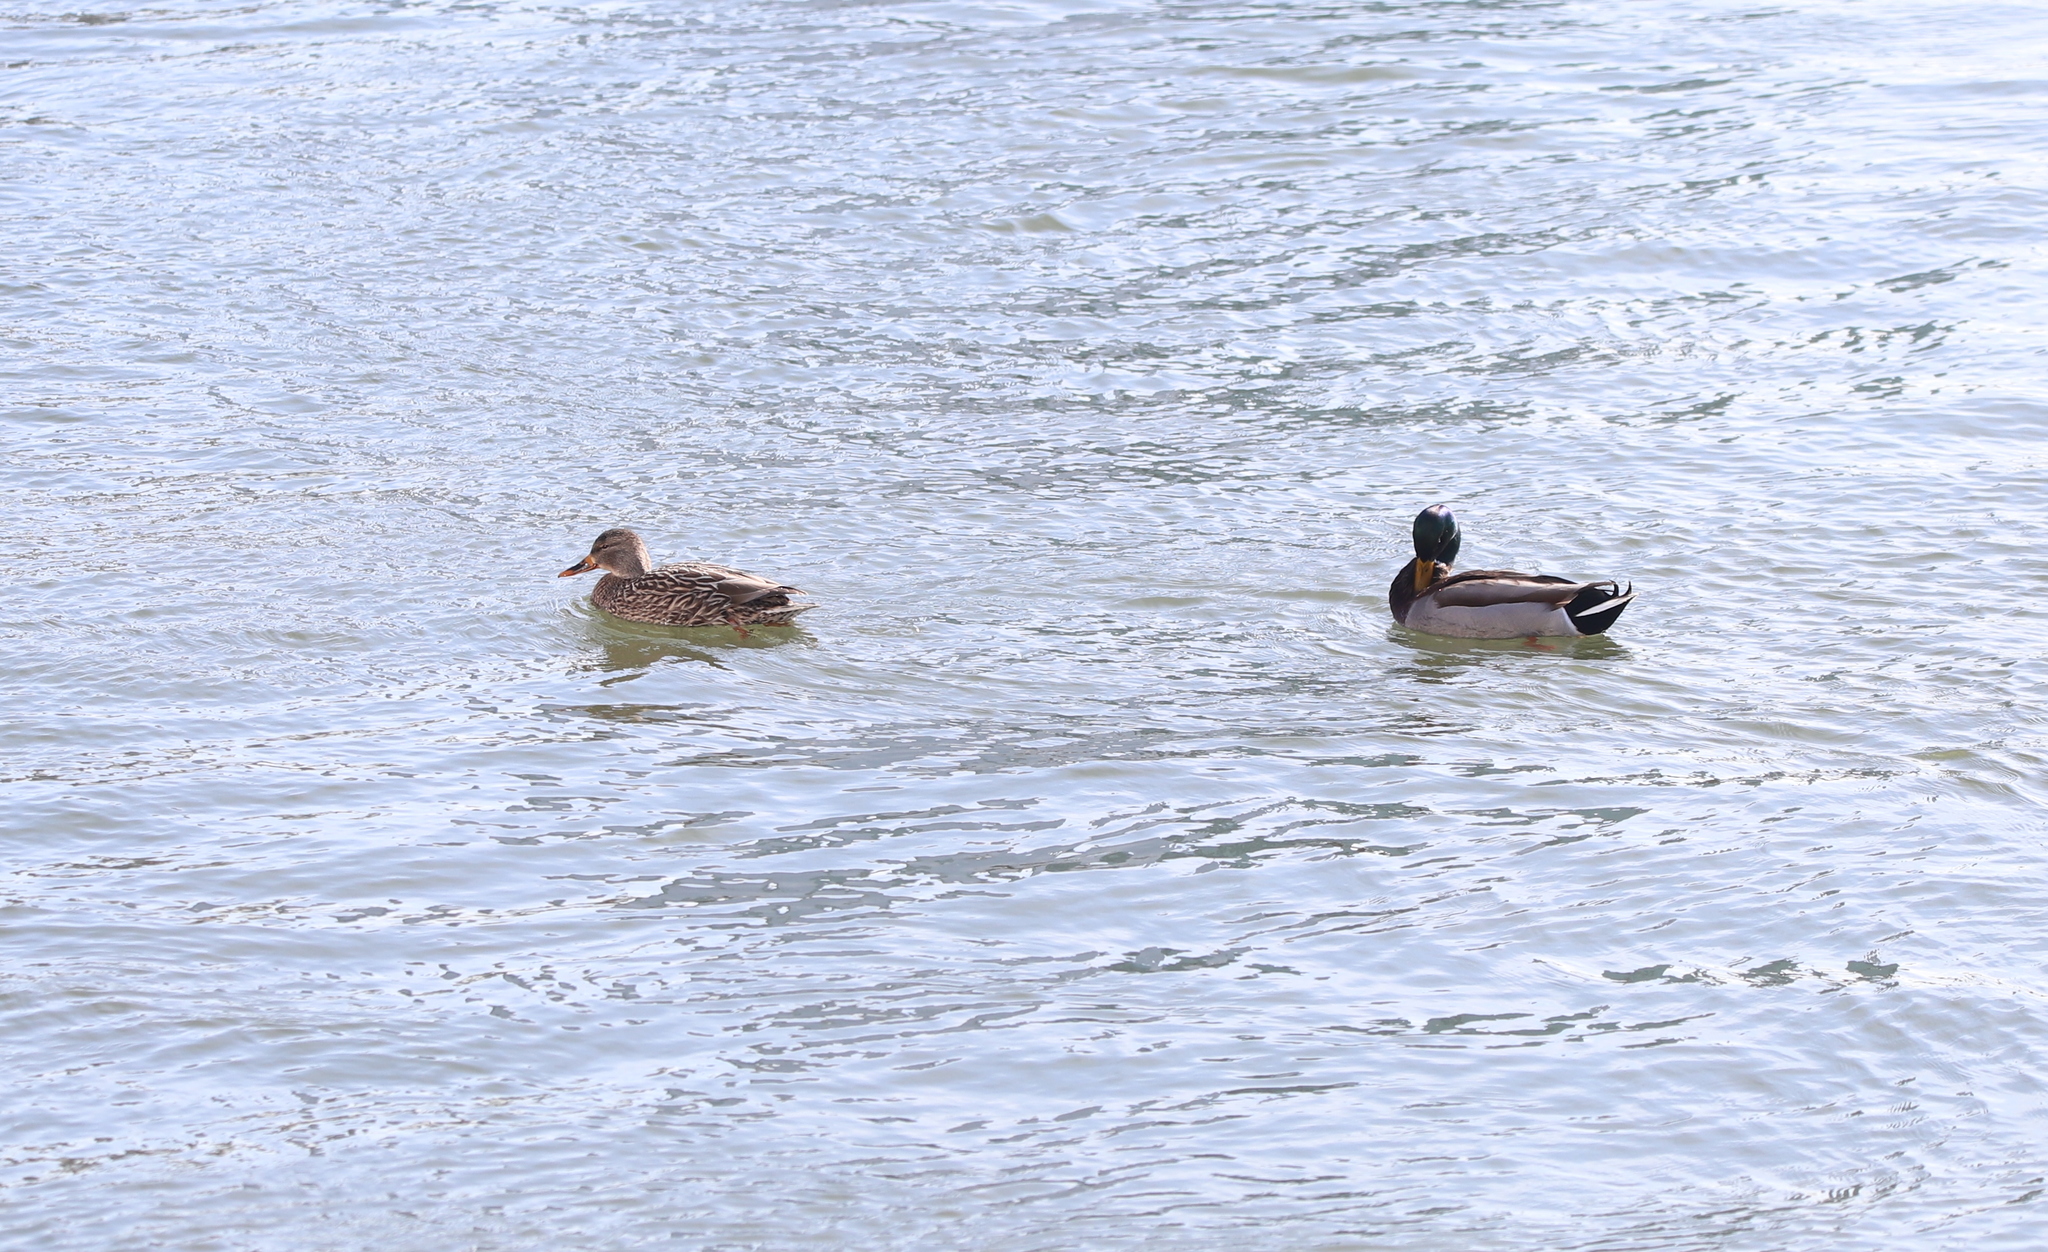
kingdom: Animalia
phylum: Chordata
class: Aves
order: Anseriformes
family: Anatidae
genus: Anas
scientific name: Anas platyrhynchos
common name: Mallard
